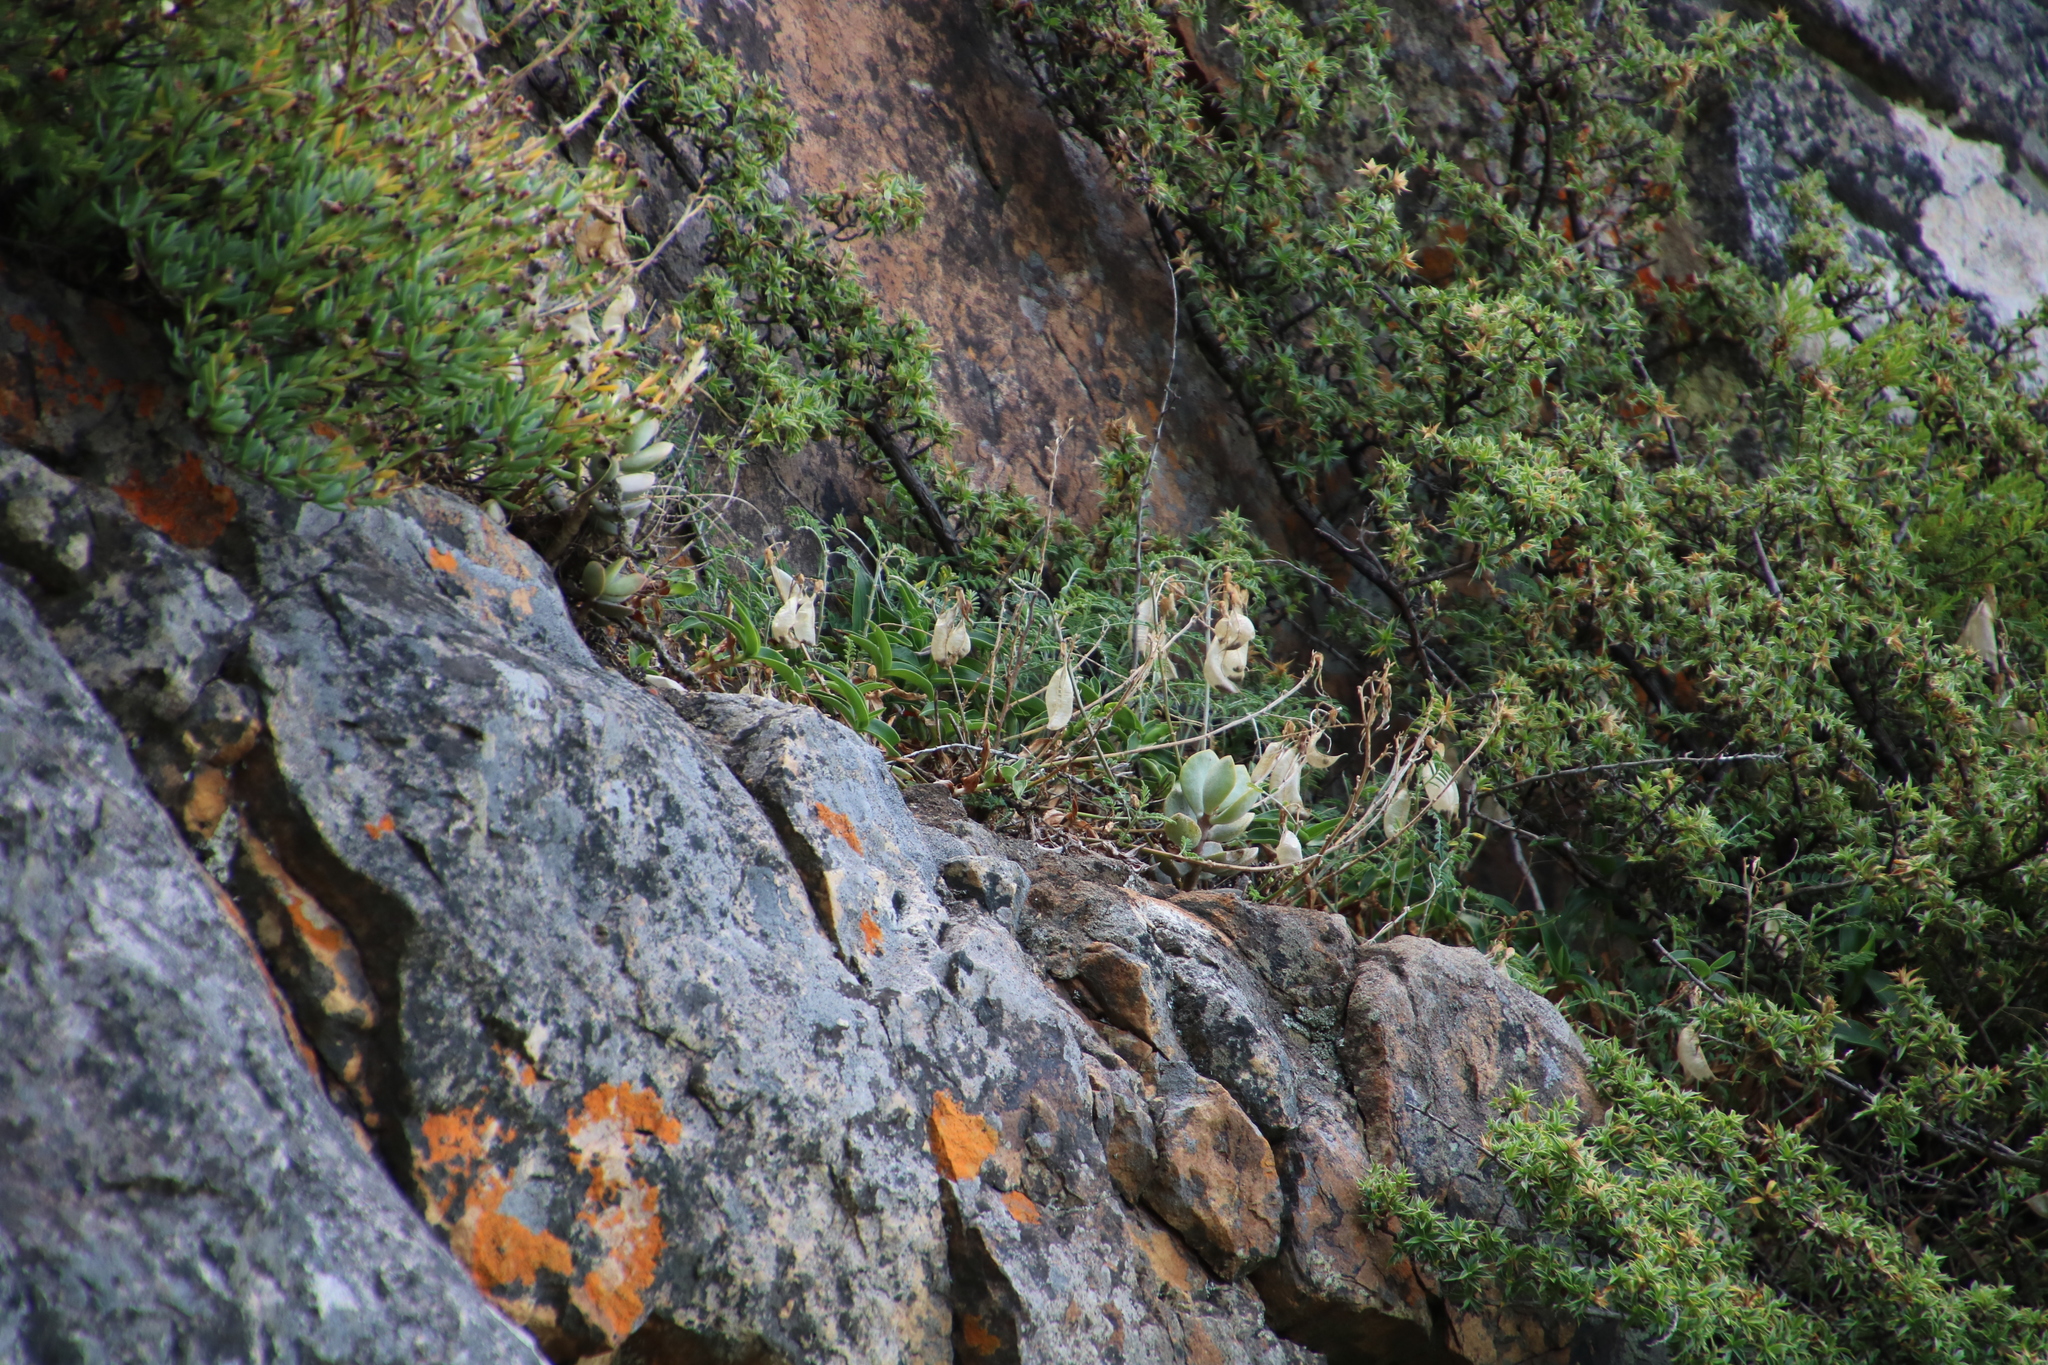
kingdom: Plantae
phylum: Tracheophyta
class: Magnoliopsida
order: Fabales
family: Fabaceae
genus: Lessertia
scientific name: Lessertia frutescens
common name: Balloon-pea
